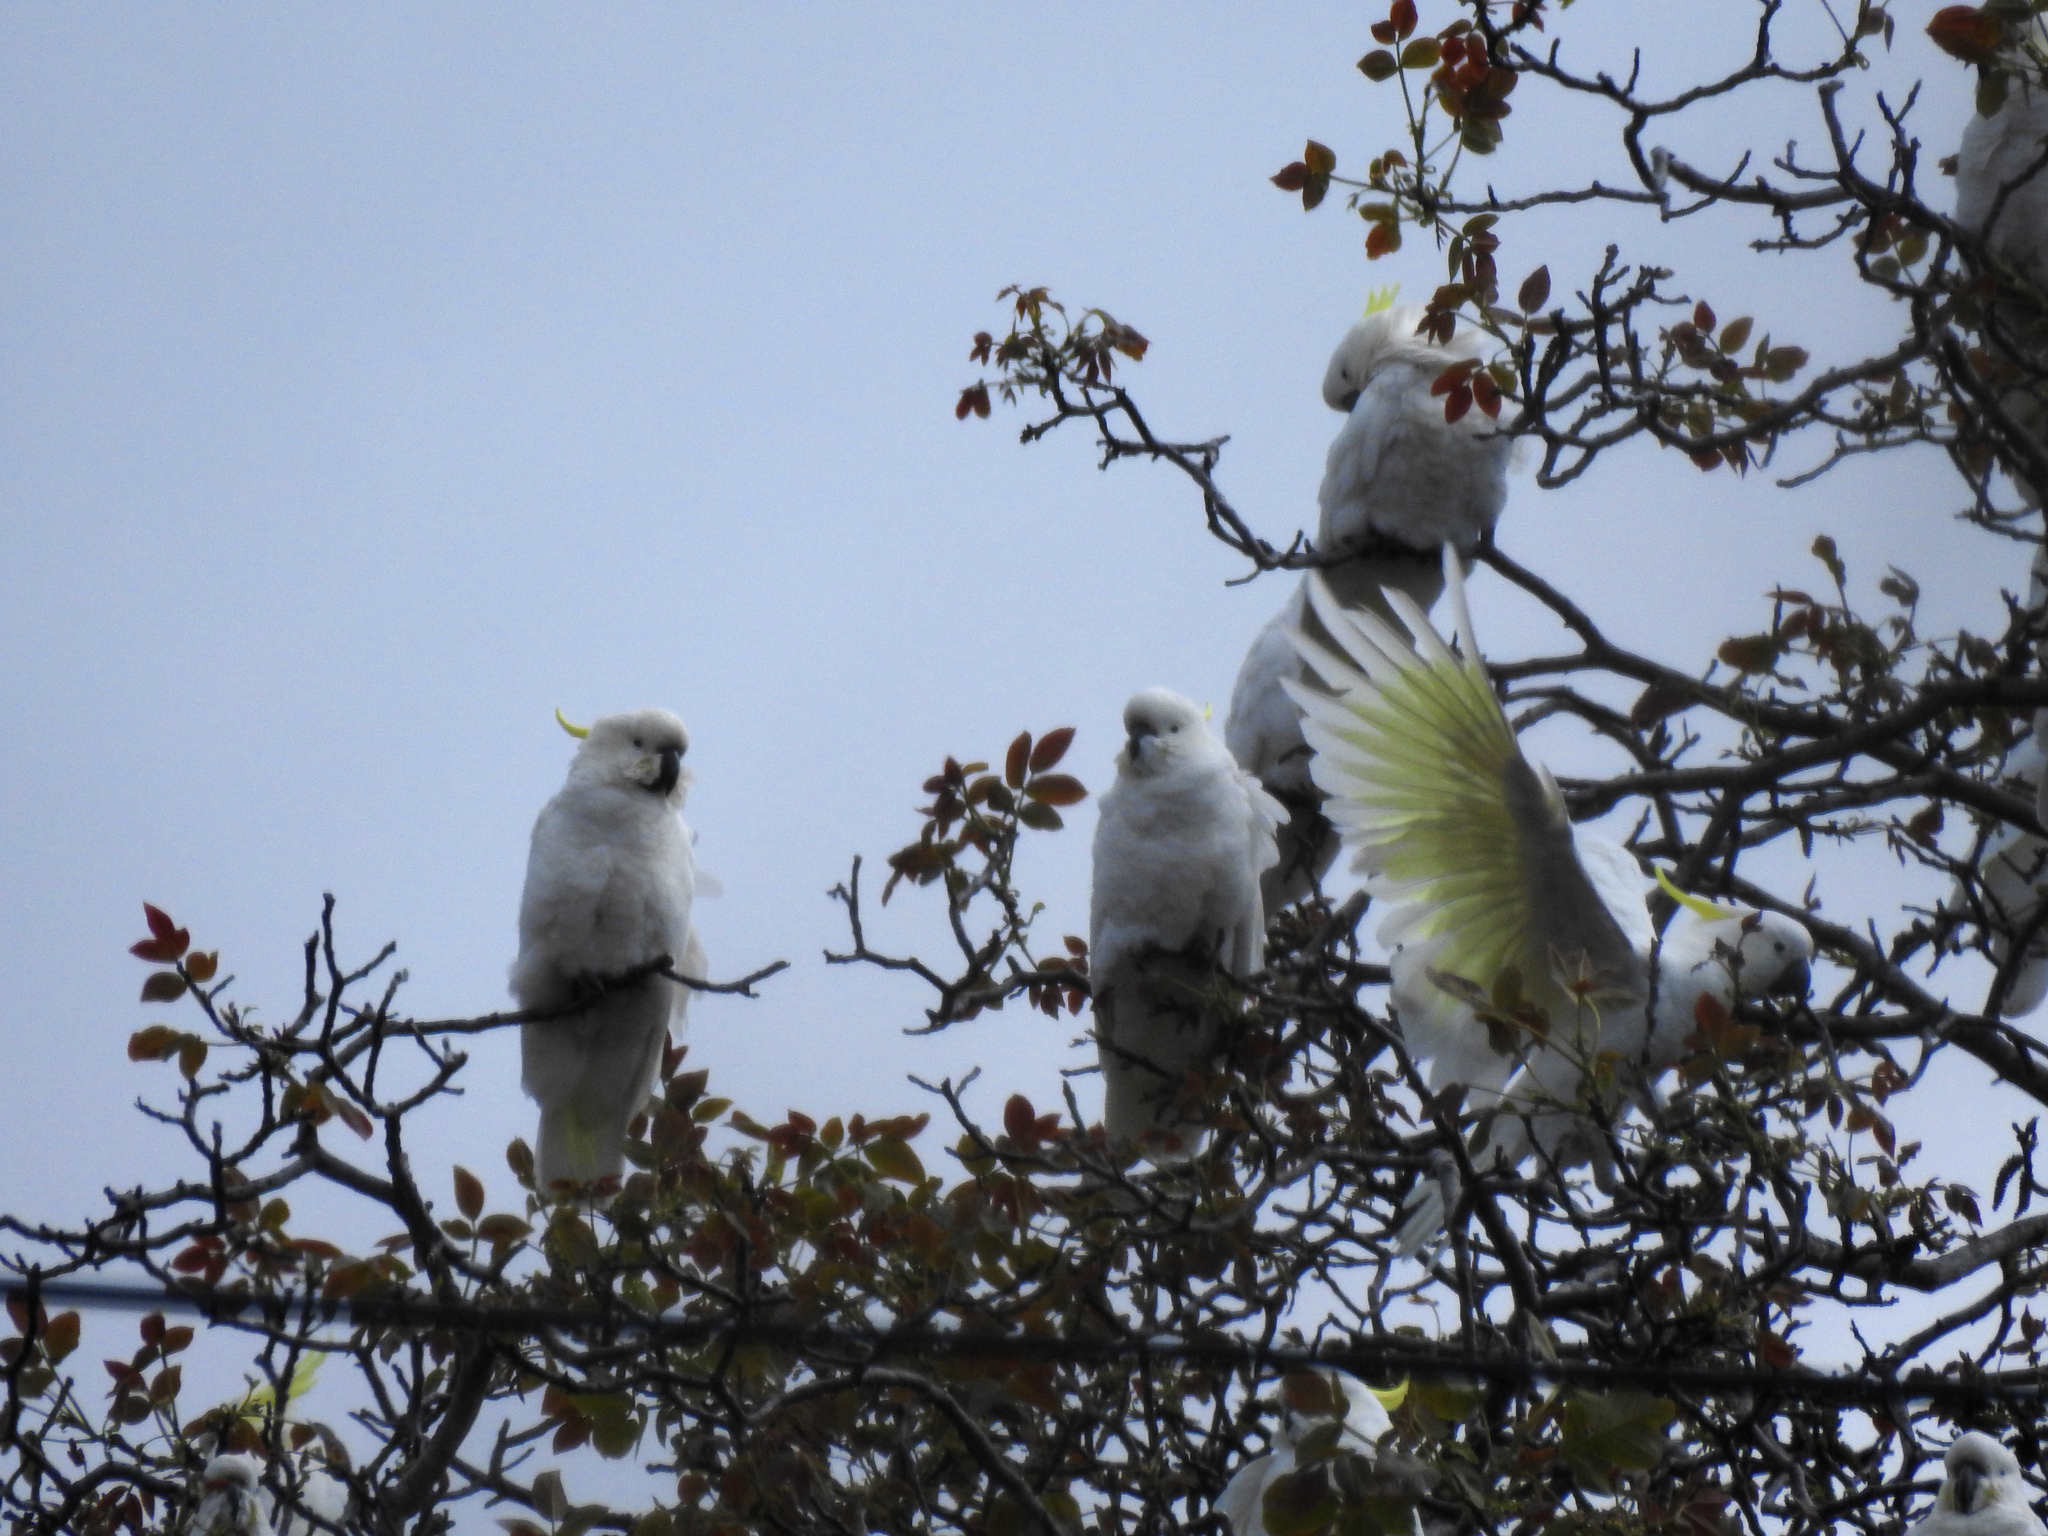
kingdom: Animalia
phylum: Chordata
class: Aves
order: Psittaciformes
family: Psittacidae
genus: Cacatua
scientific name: Cacatua galerita
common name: Sulphur-crested cockatoo
